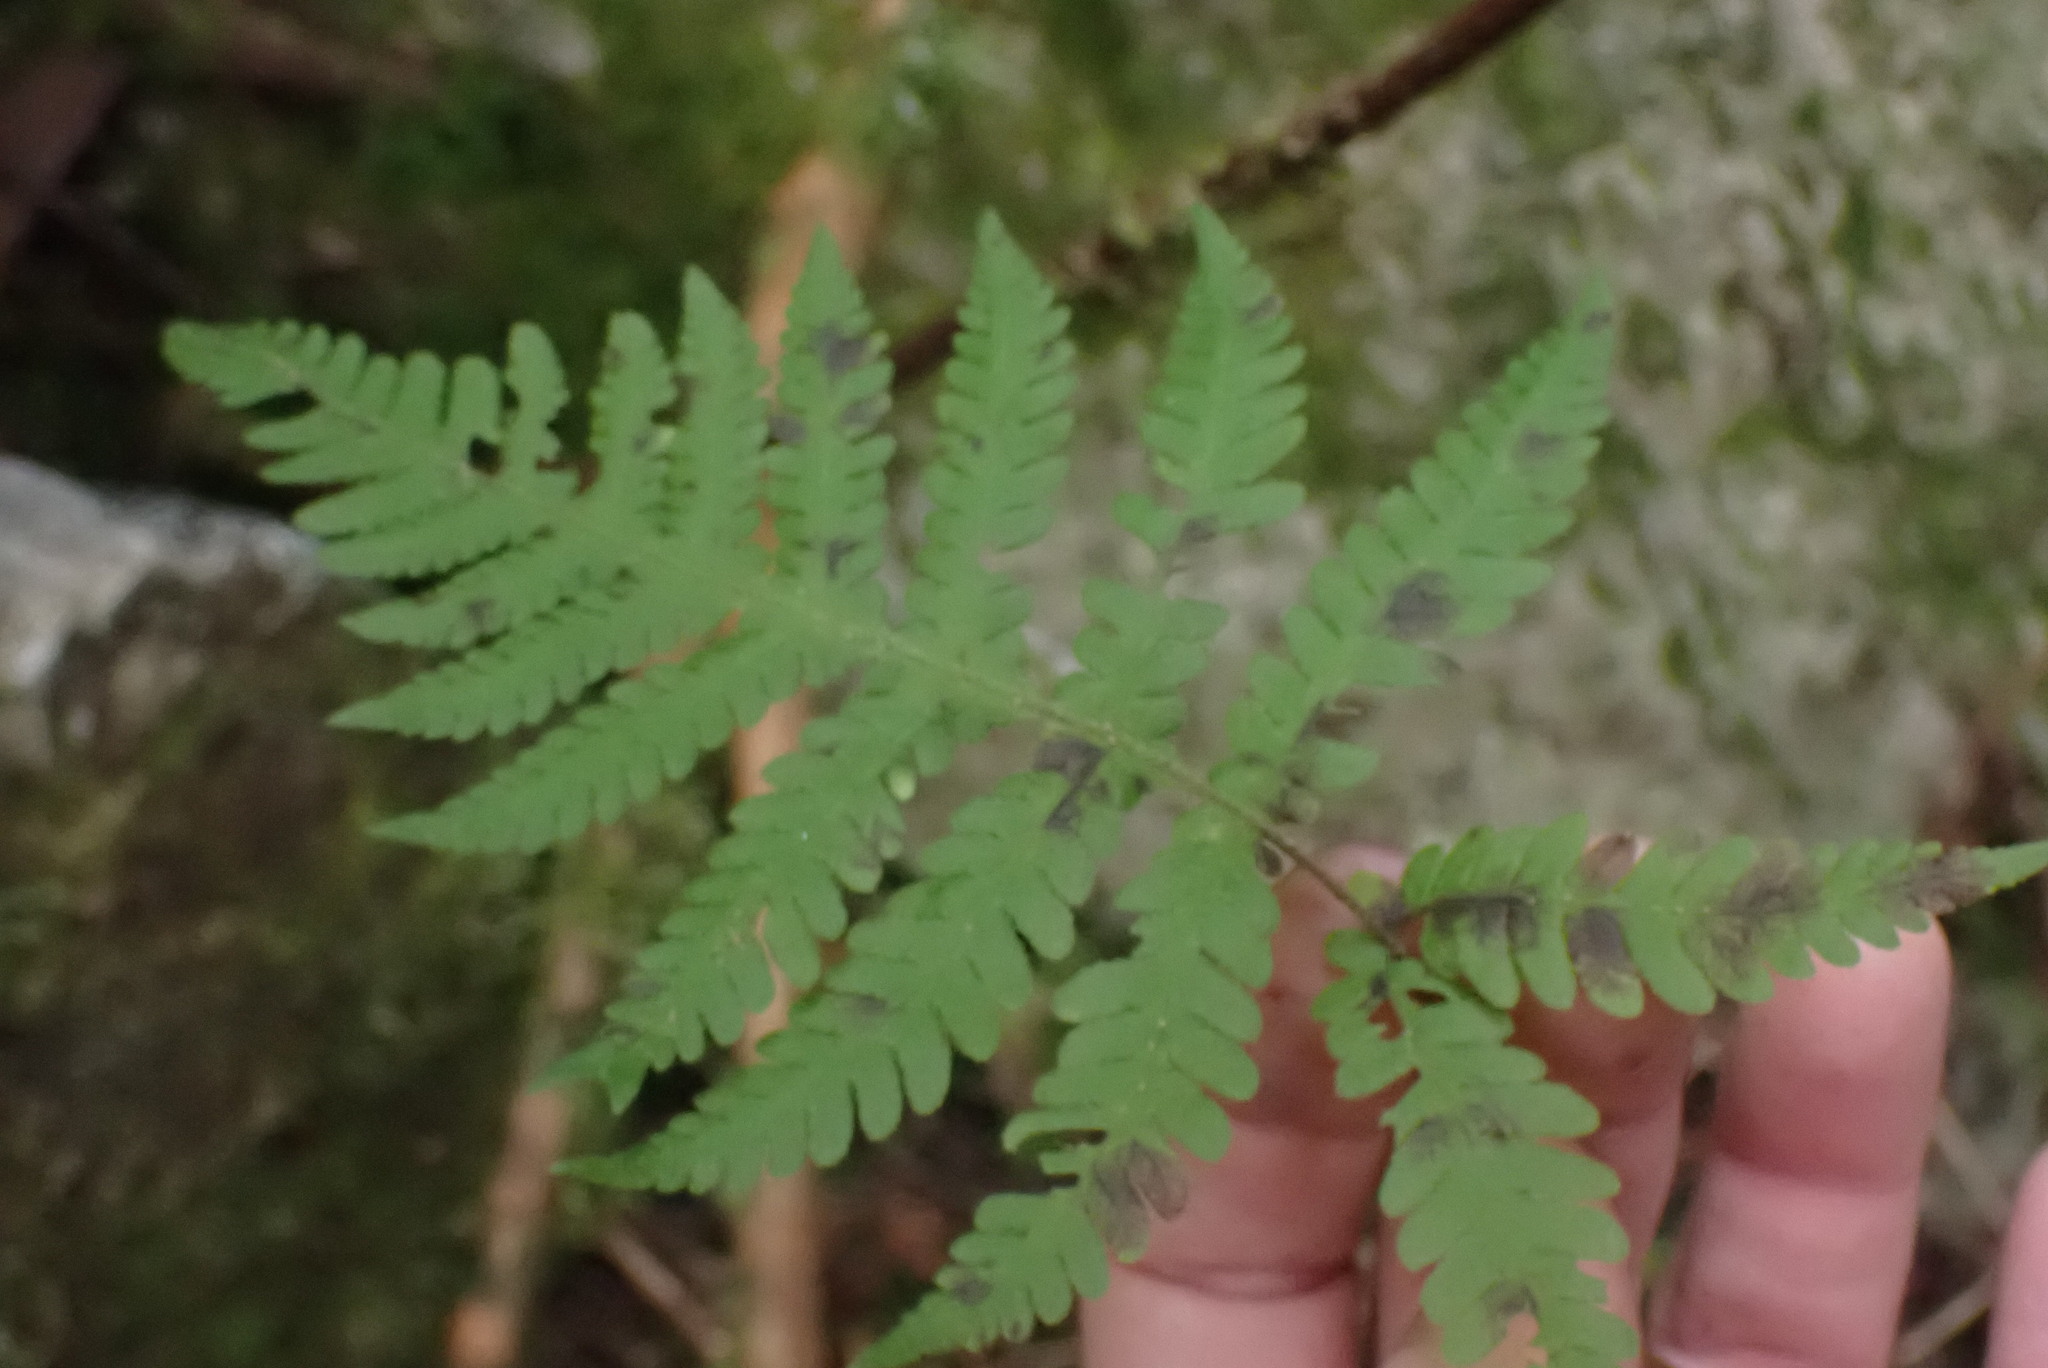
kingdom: Plantae
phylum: Tracheophyta
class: Polypodiopsida
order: Polypodiales
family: Thelypteridaceae
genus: Phegopteris
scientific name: Phegopteris connectilis
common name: Beech fern
